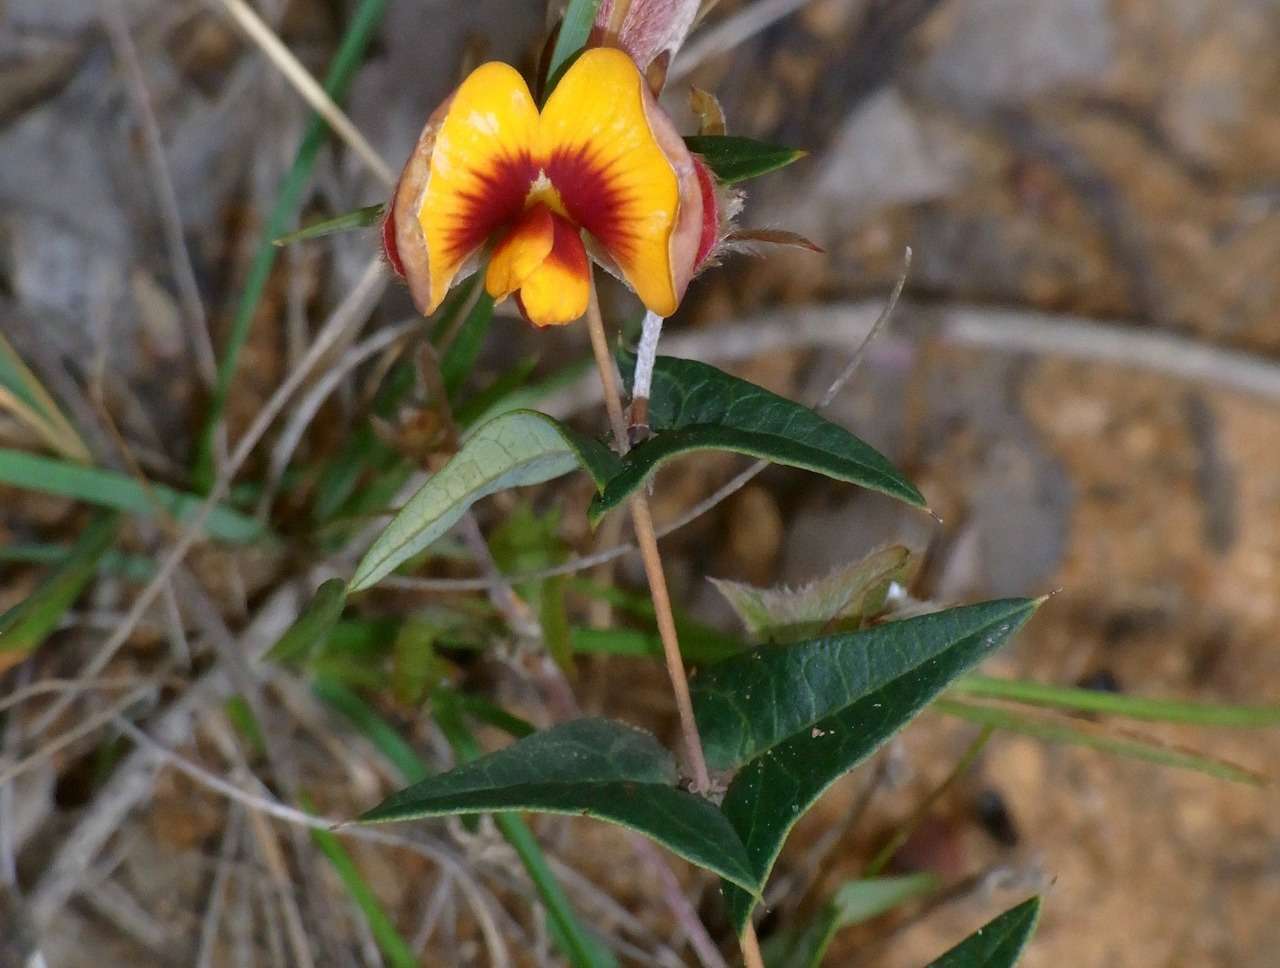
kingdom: Plantae
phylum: Tracheophyta
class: Magnoliopsida
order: Fabales
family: Fabaceae
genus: Platylobium
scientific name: Platylobium obtusangulum
